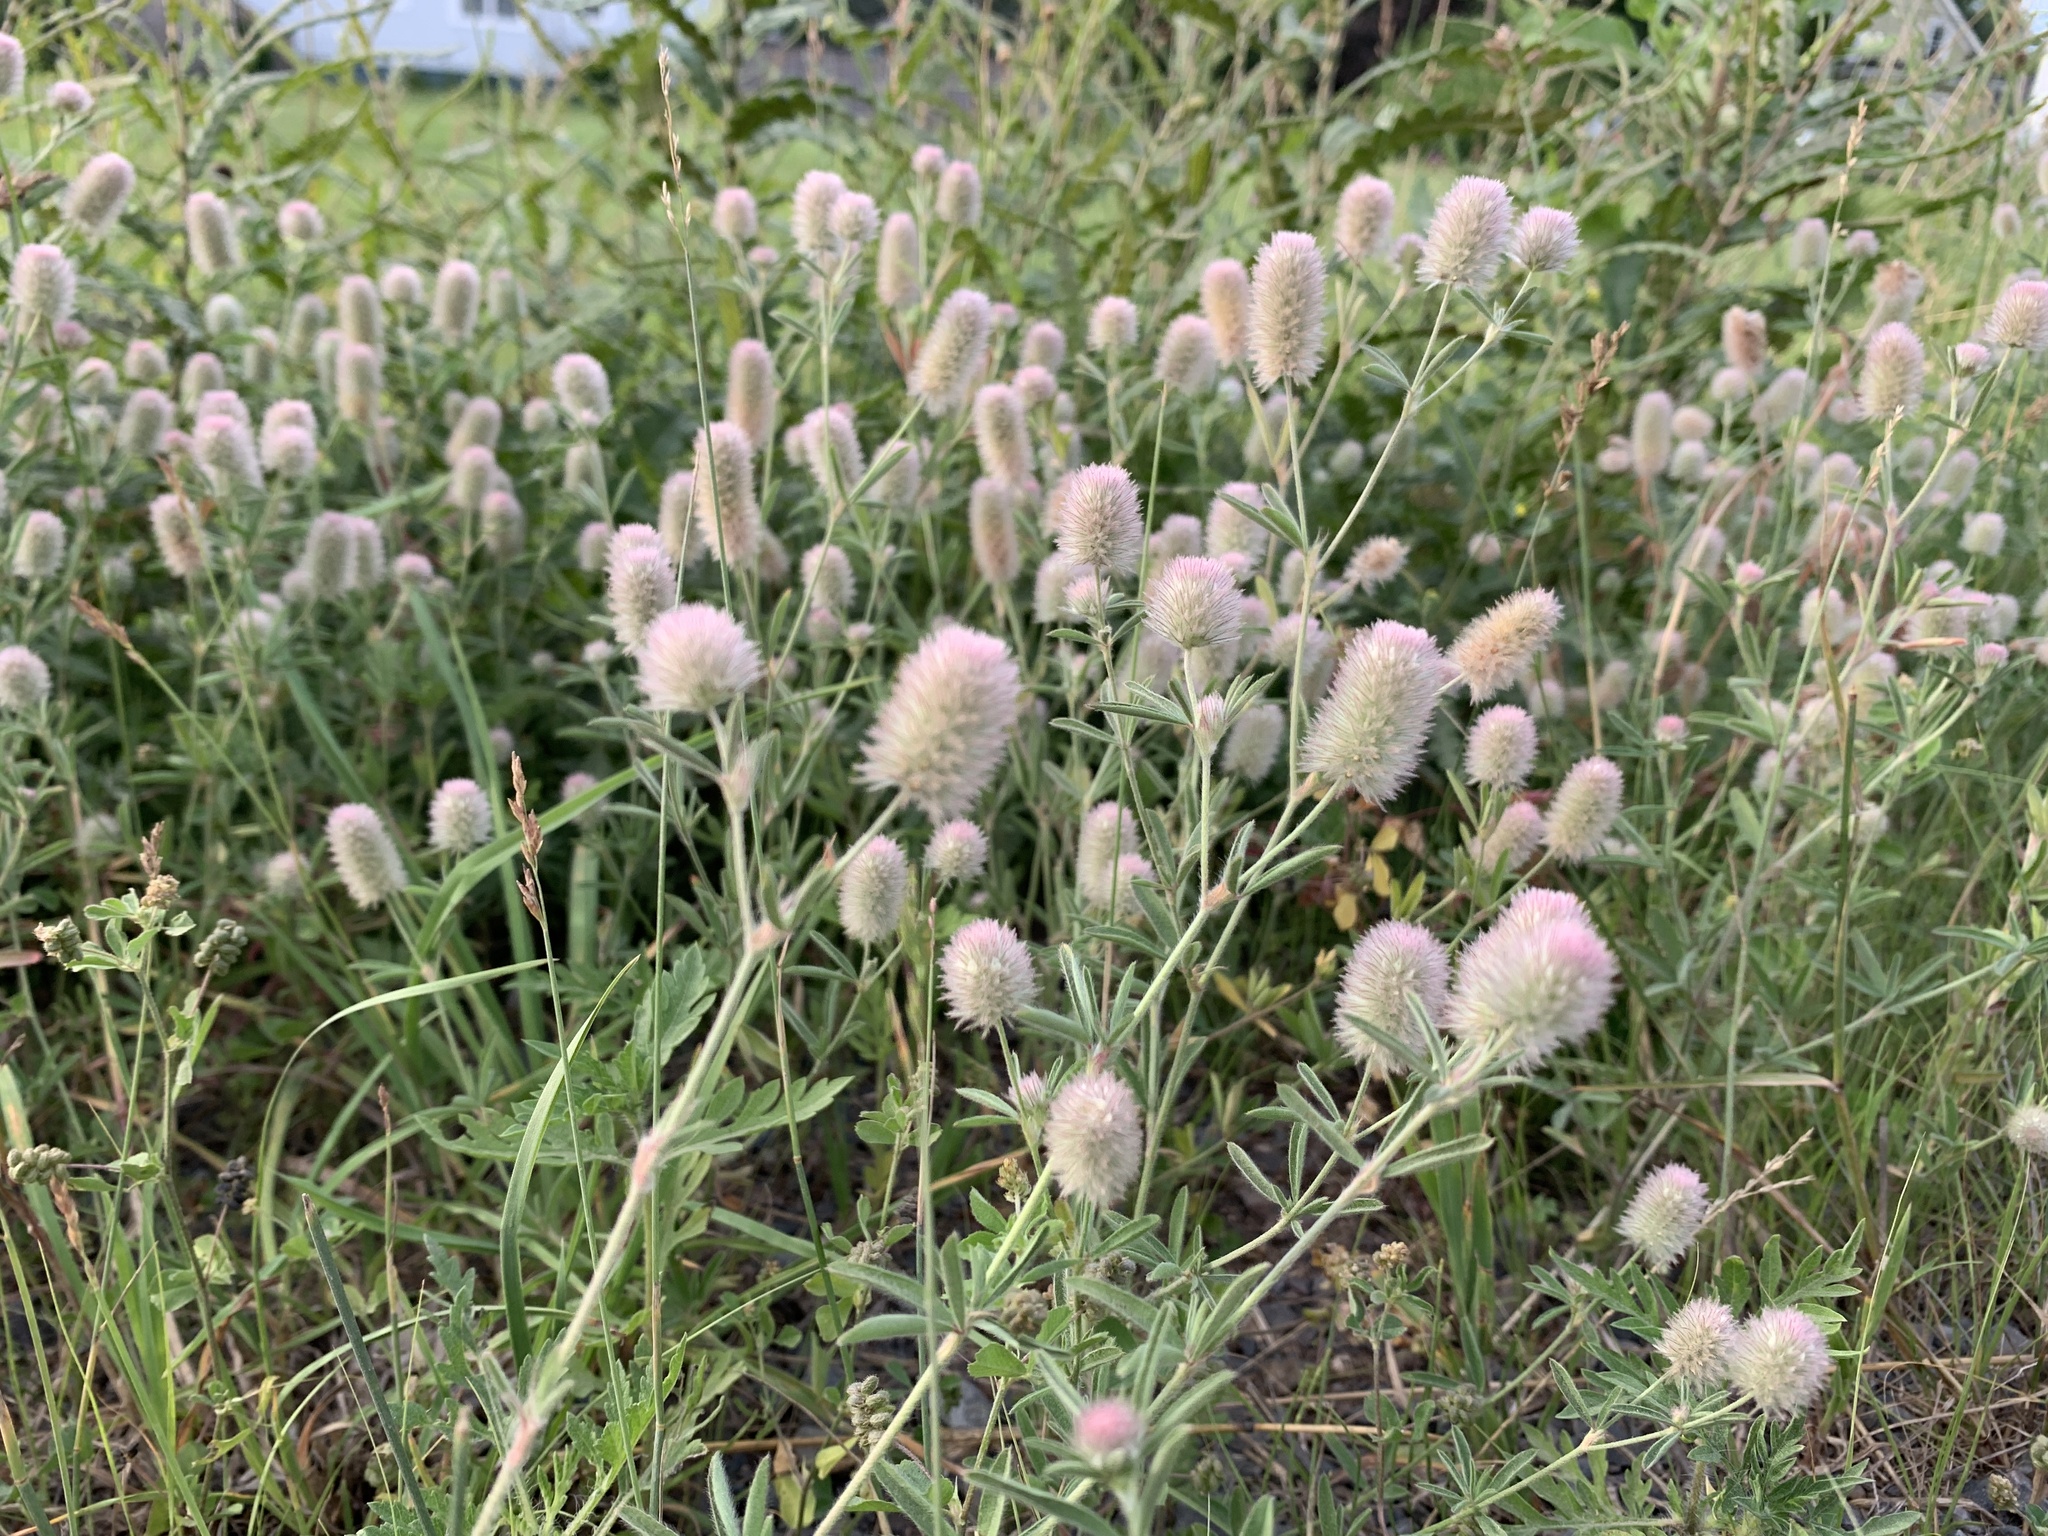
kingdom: Plantae
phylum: Tracheophyta
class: Magnoliopsida
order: Fabales
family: Fabaceae
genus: Trifolium
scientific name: Trifolium arvense
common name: Hare's-foot clover
